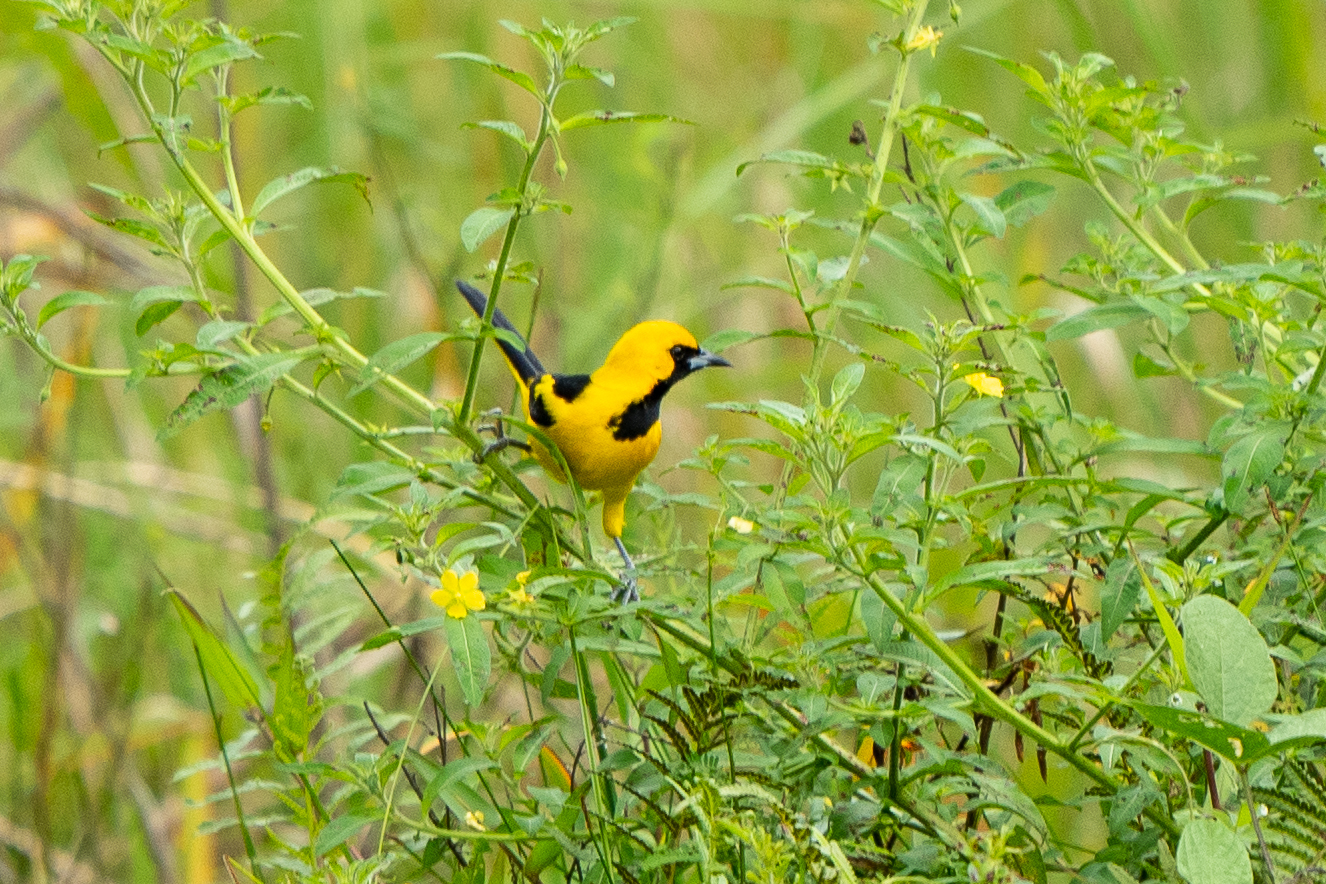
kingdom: Animalia
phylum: Chordata
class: Aves
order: Passeriformes
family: Icteridae
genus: Icterus
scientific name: Icterus mesomelas
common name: Yellow-tailed oriole
